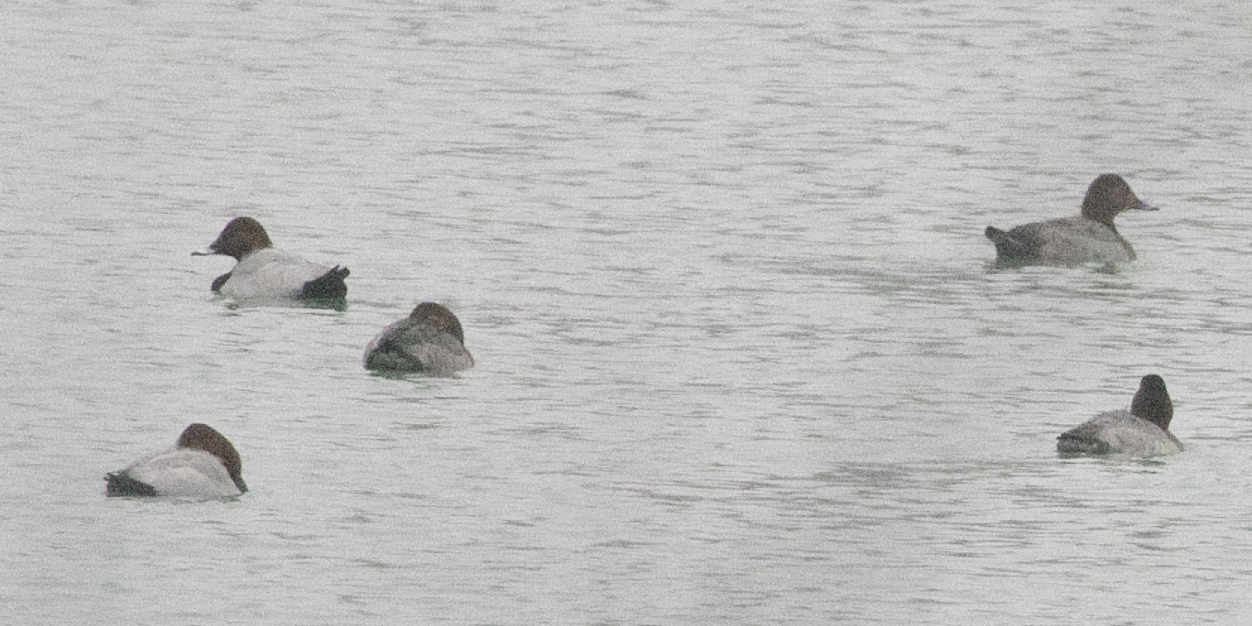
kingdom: Animalia
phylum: Chordata
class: Aves
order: Anseriformes
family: Anatidae
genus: Aythya
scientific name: Aythya ferina
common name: Common pochard
